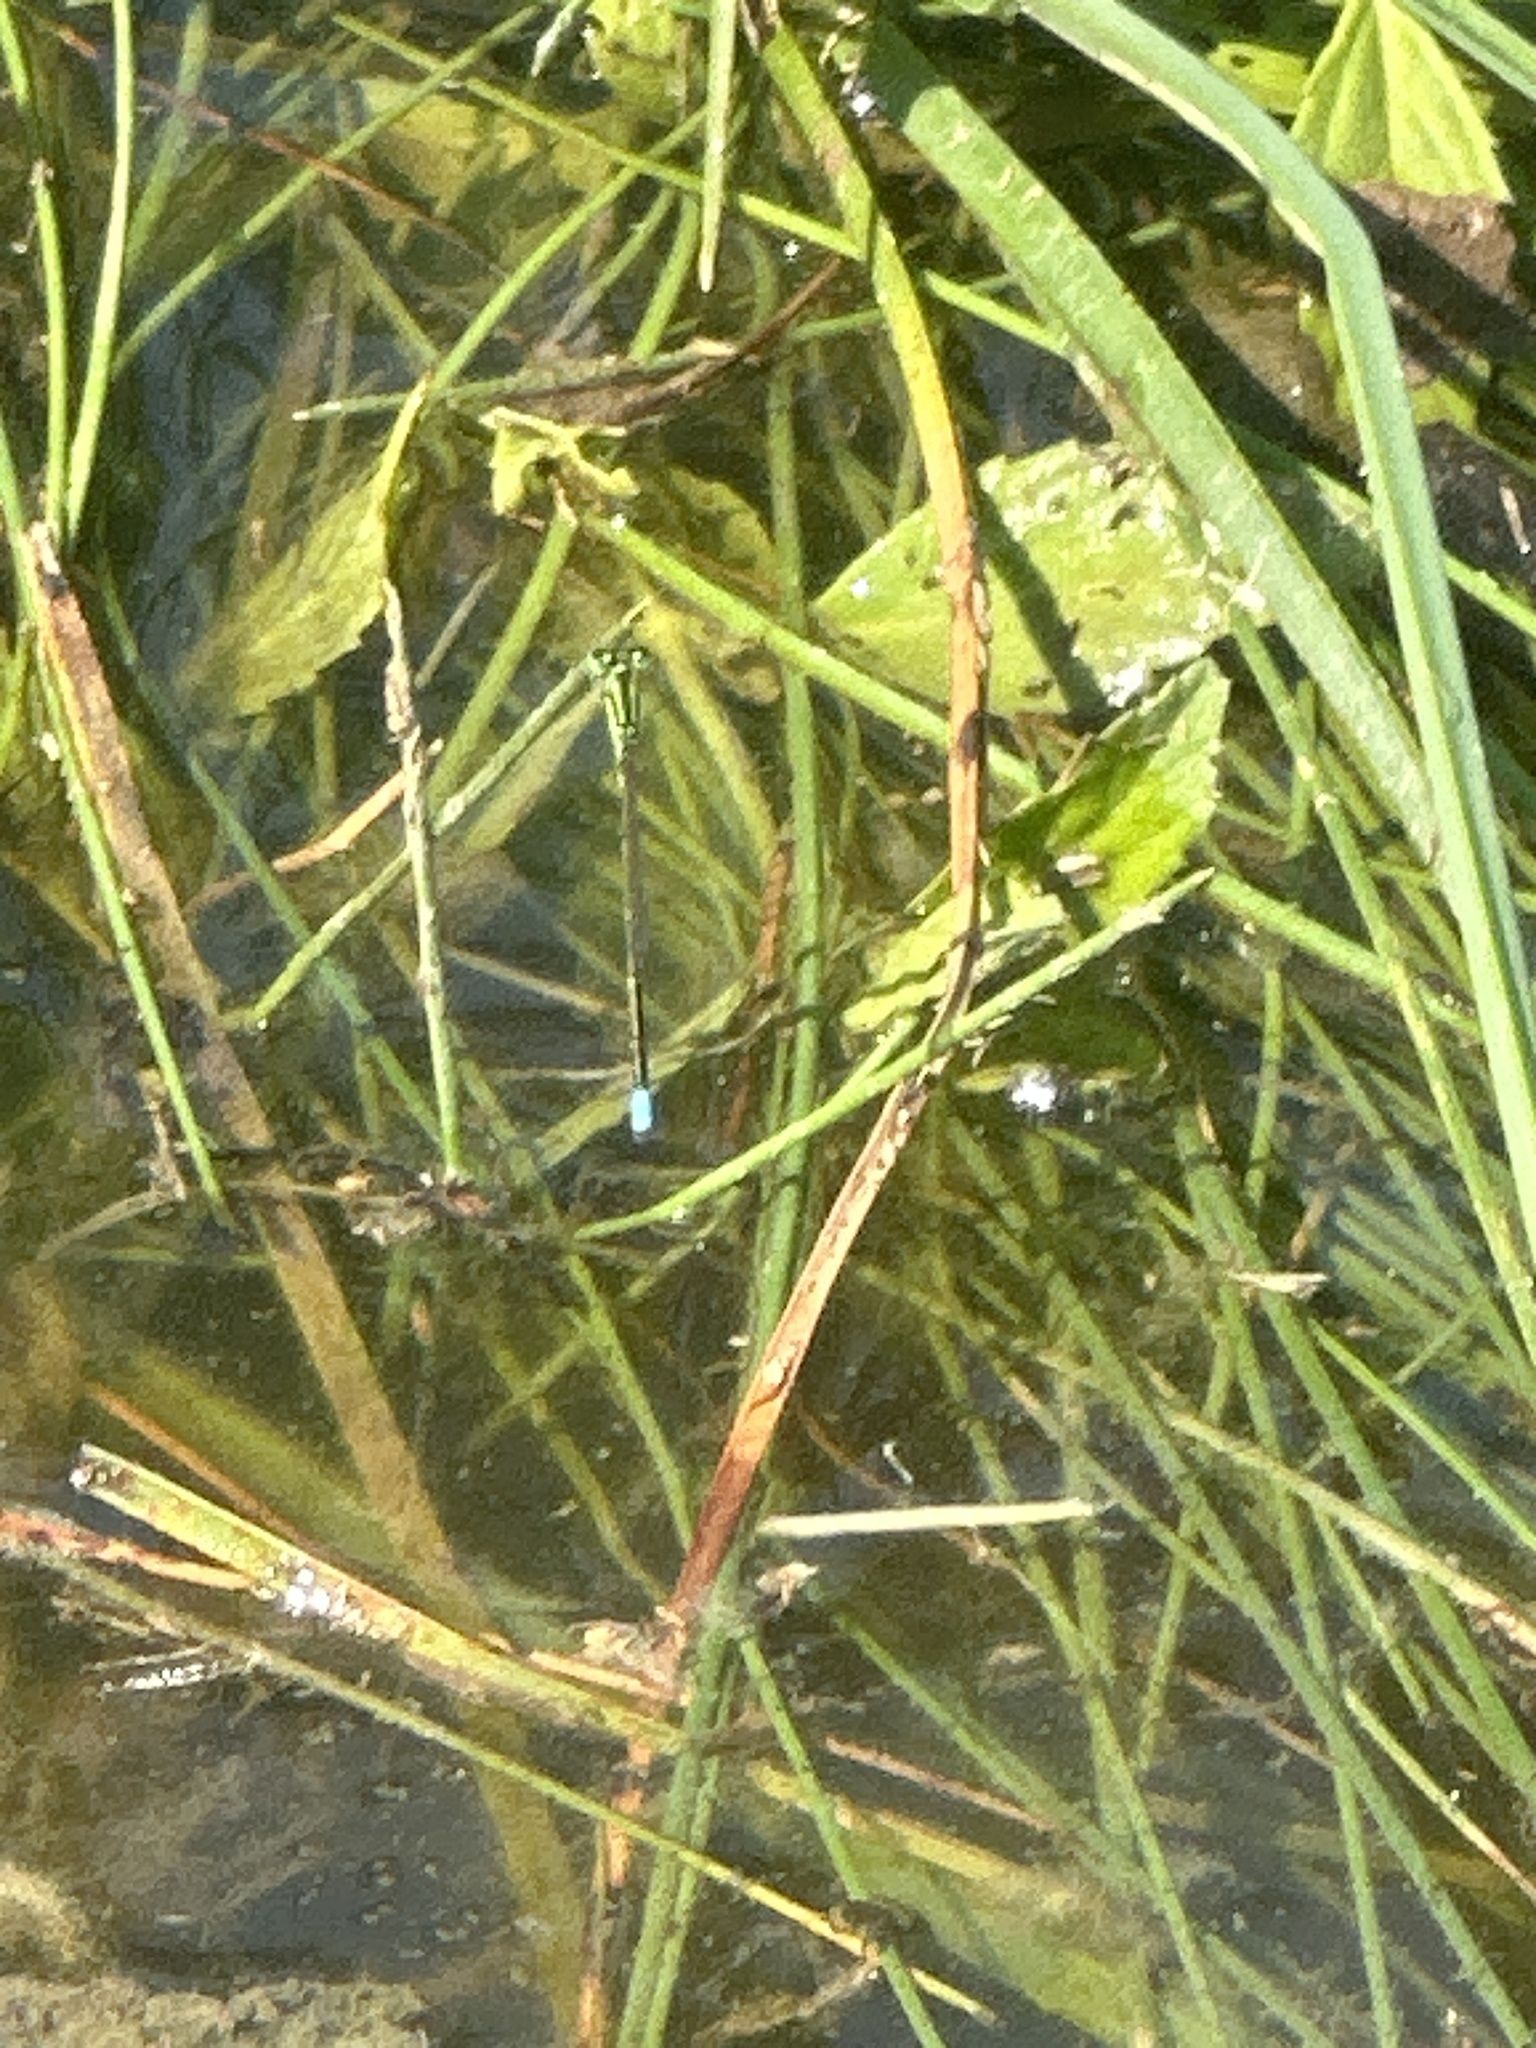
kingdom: Animalia
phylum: Arthropoda
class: Insecta
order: Odonata
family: Coenagrionidae
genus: Ischnura
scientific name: Ischnura verticalis
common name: Eastern forktail
